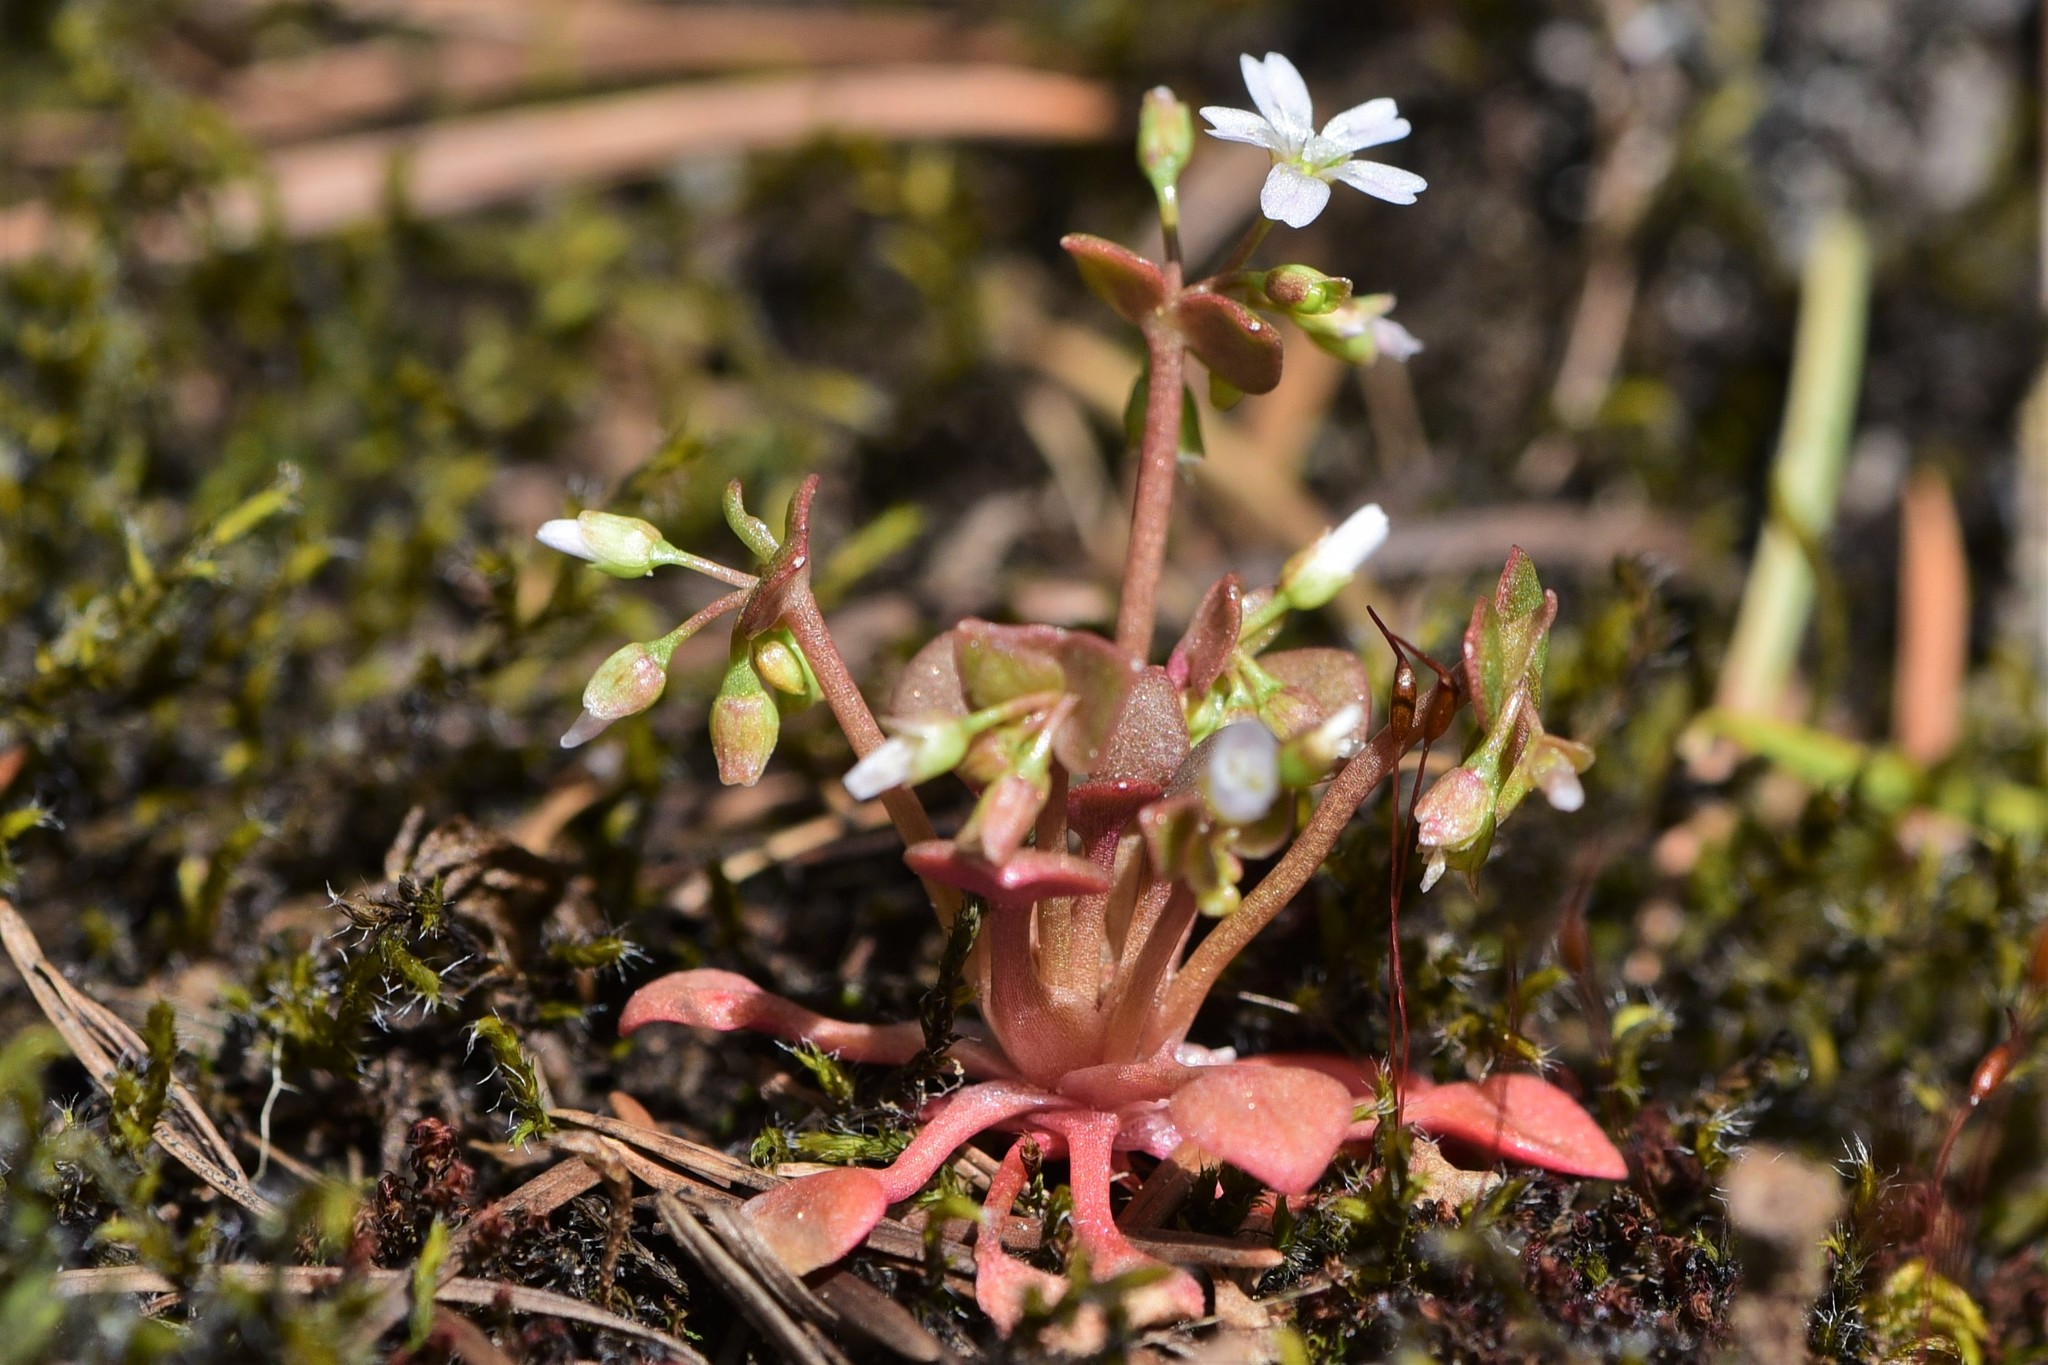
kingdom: Plantae
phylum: Tracheophyta
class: Magnoliopsida
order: Caryophyllales
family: Montiaceae
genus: Claytonia
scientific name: Claytonia rubra
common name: Erubescent miner's-lettuce
